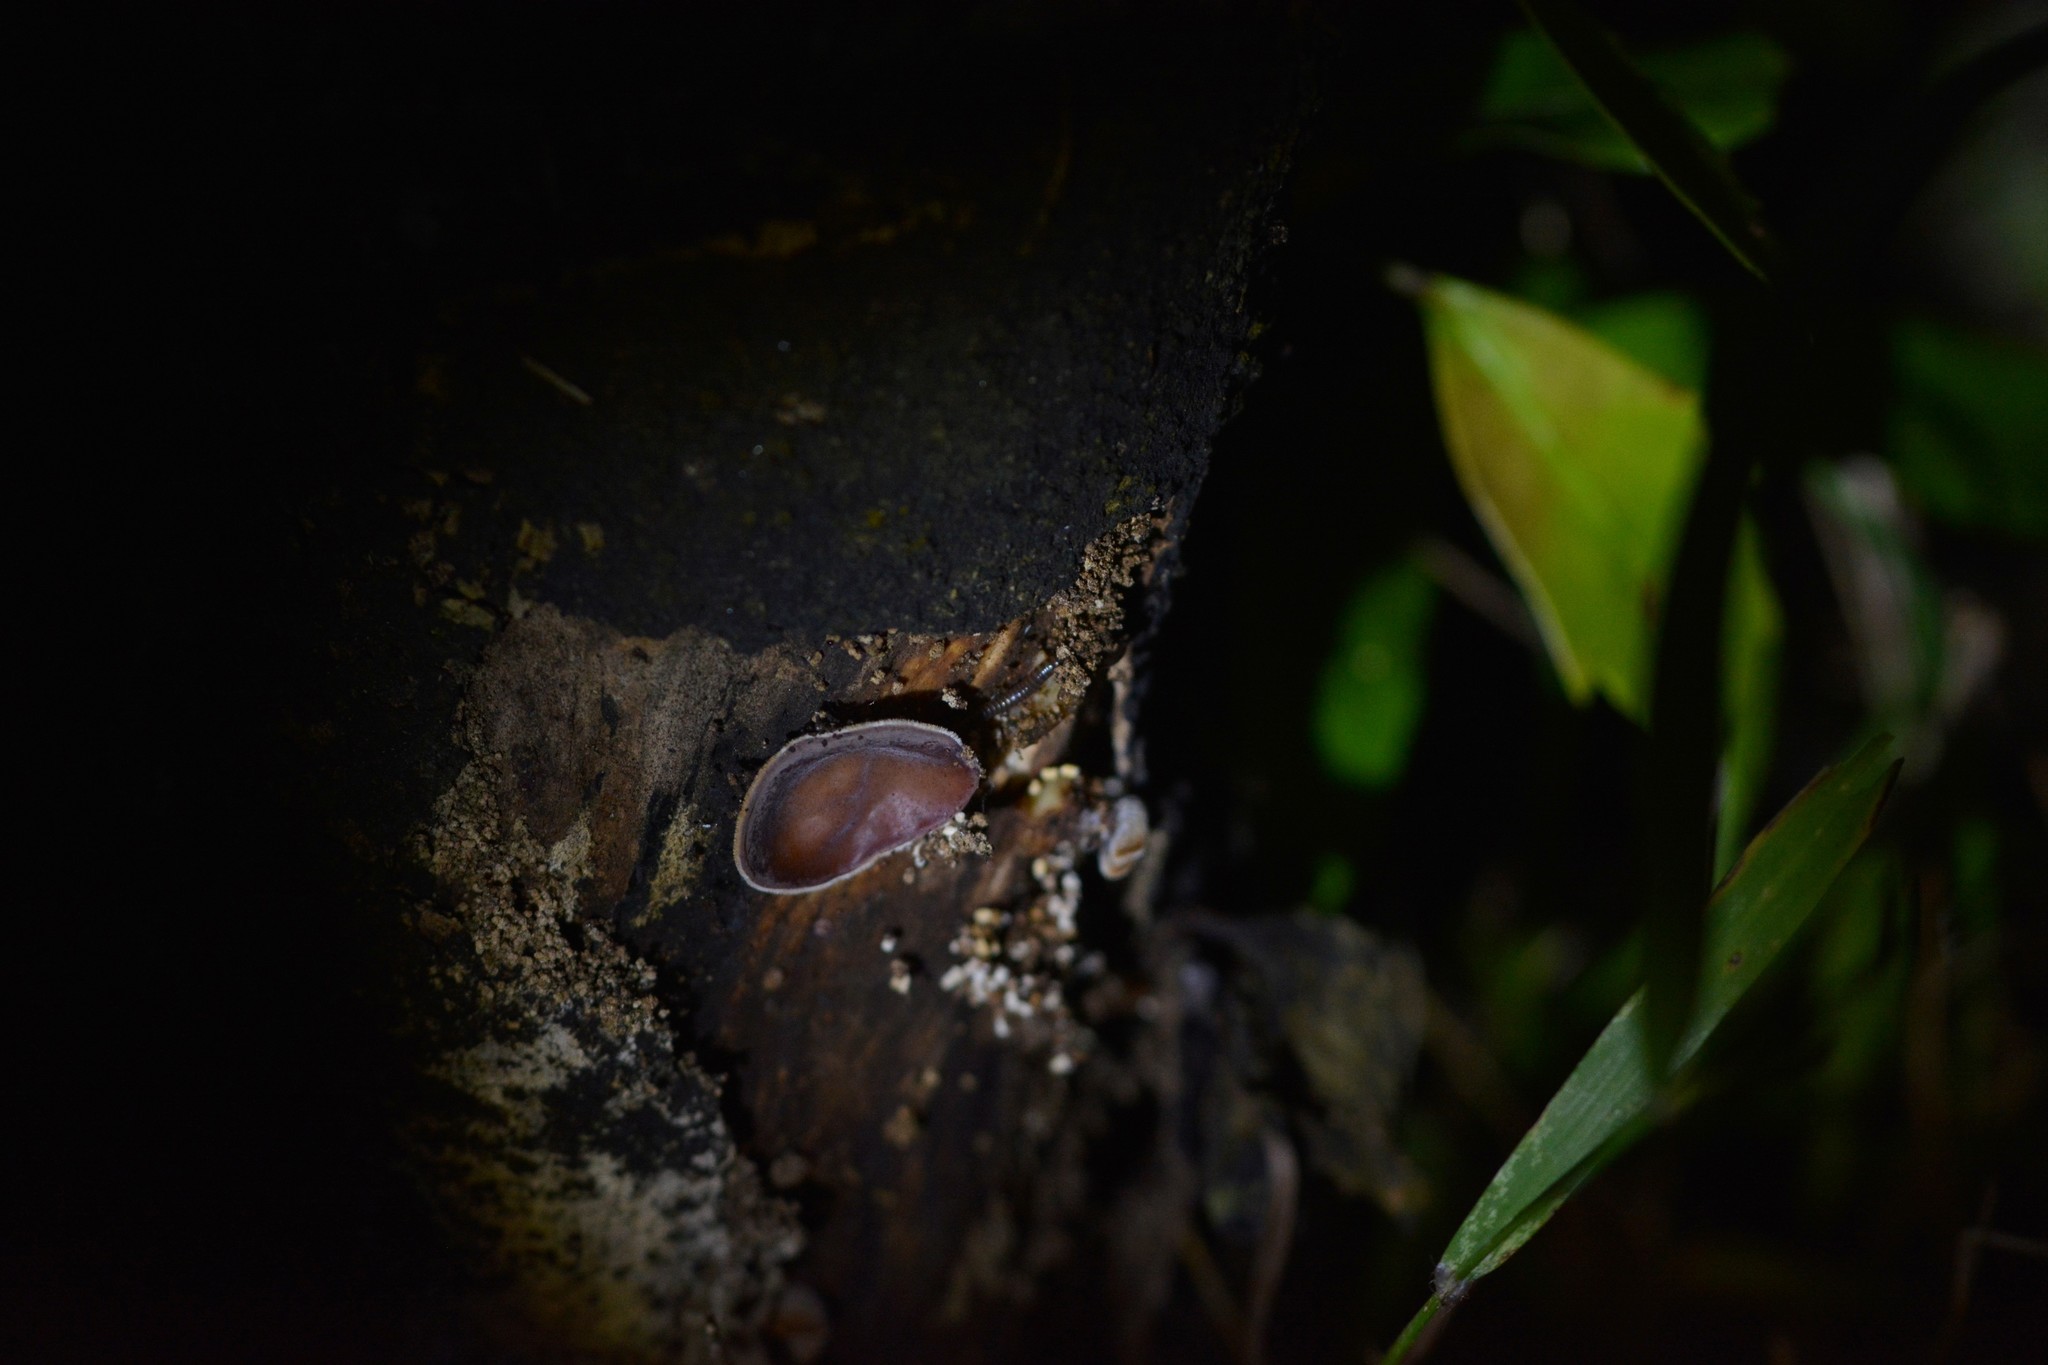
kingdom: Fungi
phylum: Basidiomycota
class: Agaricomycetes
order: Auriculariales
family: Auriculariaceae
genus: Auricularia
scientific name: Auricularia cornea
